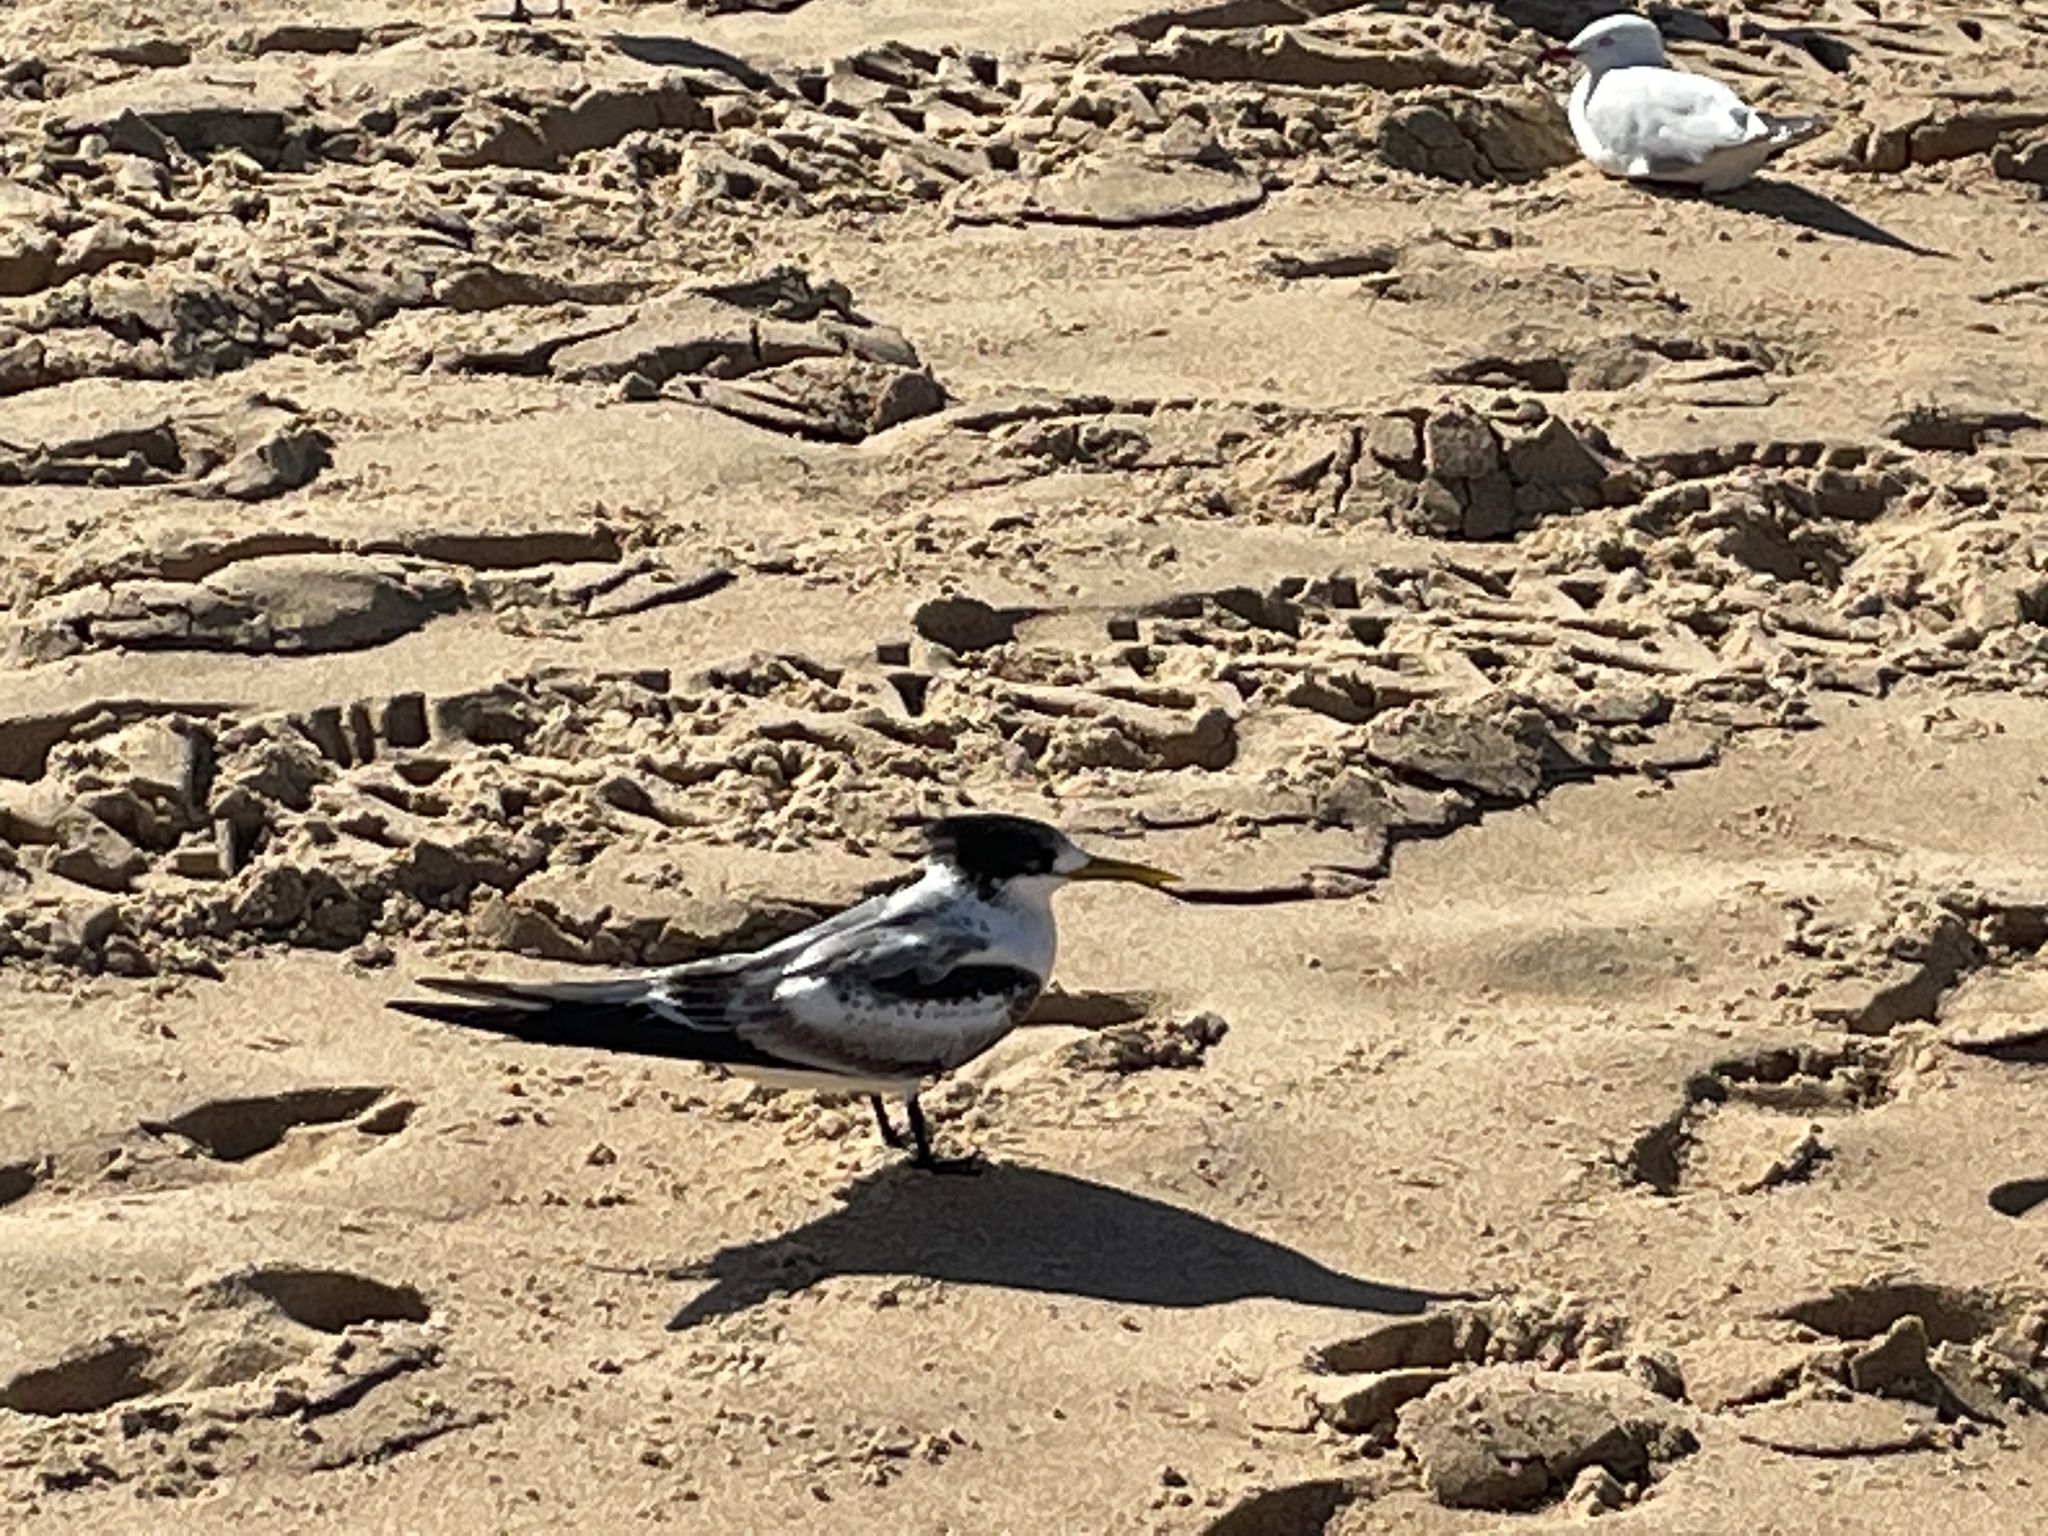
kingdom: Animalia
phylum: Chordata
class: Aves
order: Charadriiformes
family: Laridae
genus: Thalasseus
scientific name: Thalasseus bergii
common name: Greater crested tern
